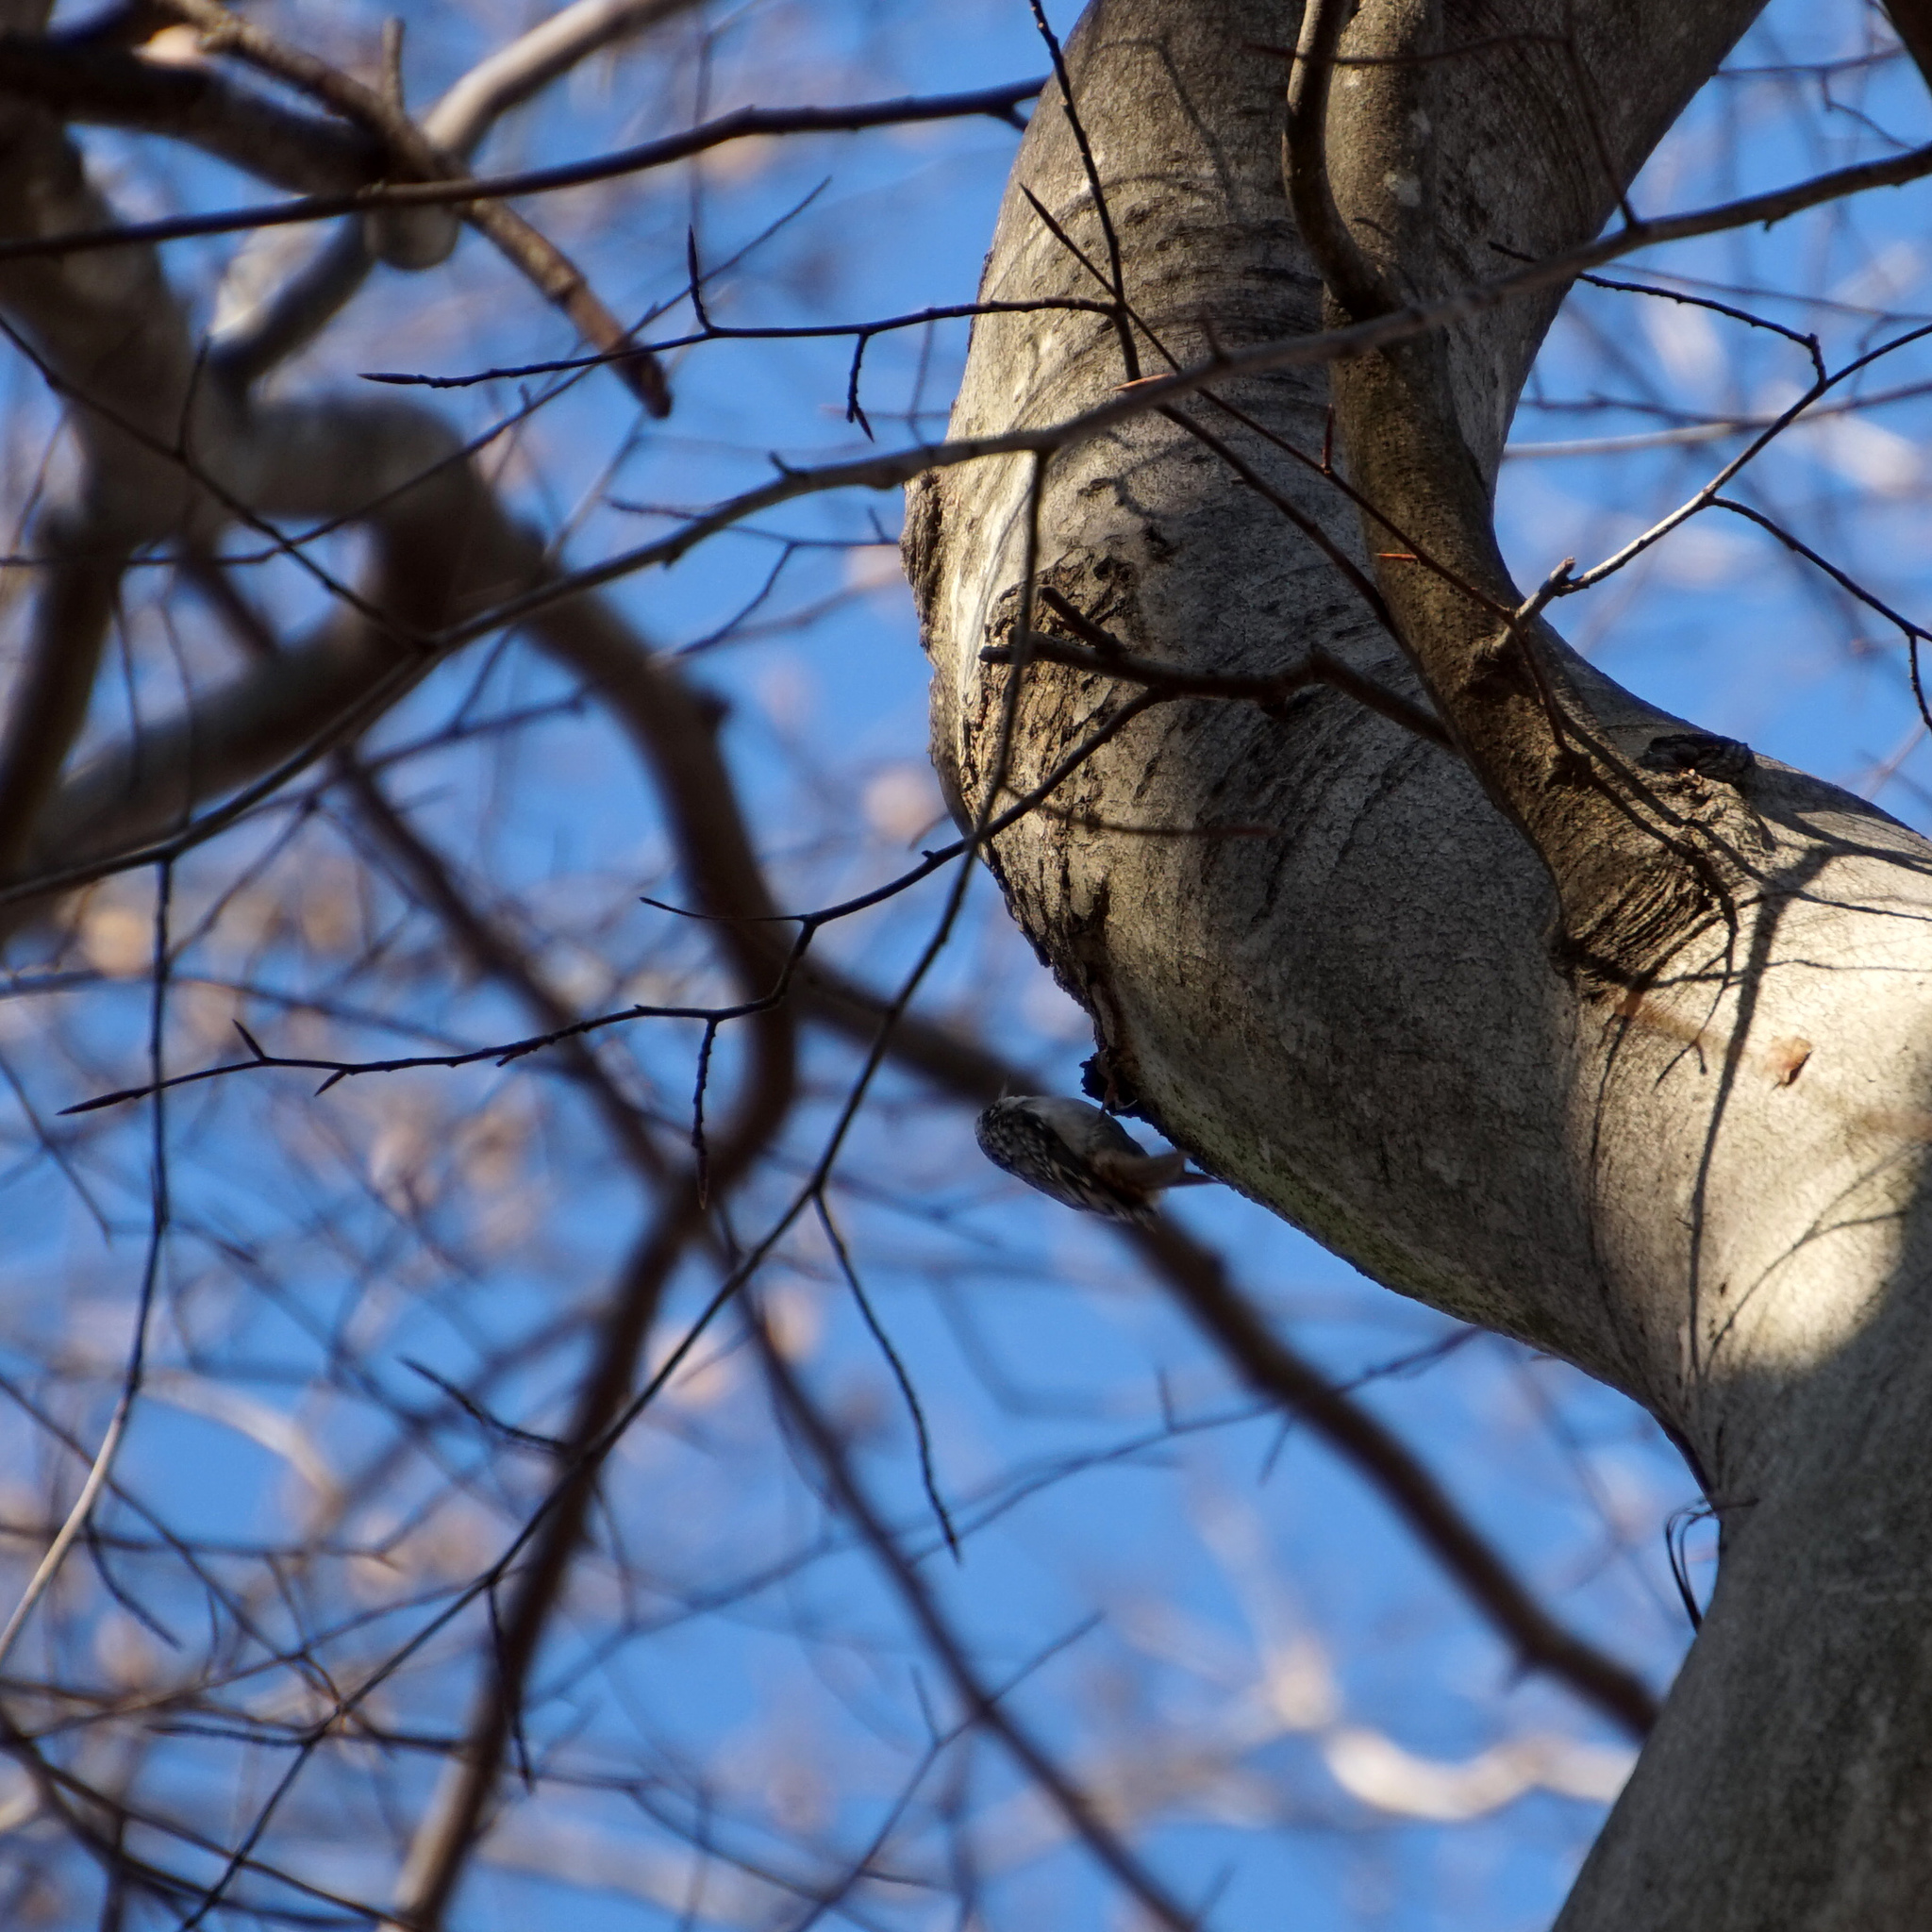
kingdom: Animalia
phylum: Chordata
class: Aves
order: Passeriformes
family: Certhiidae
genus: Certhia
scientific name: Certhia americana
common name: Brown creeper
